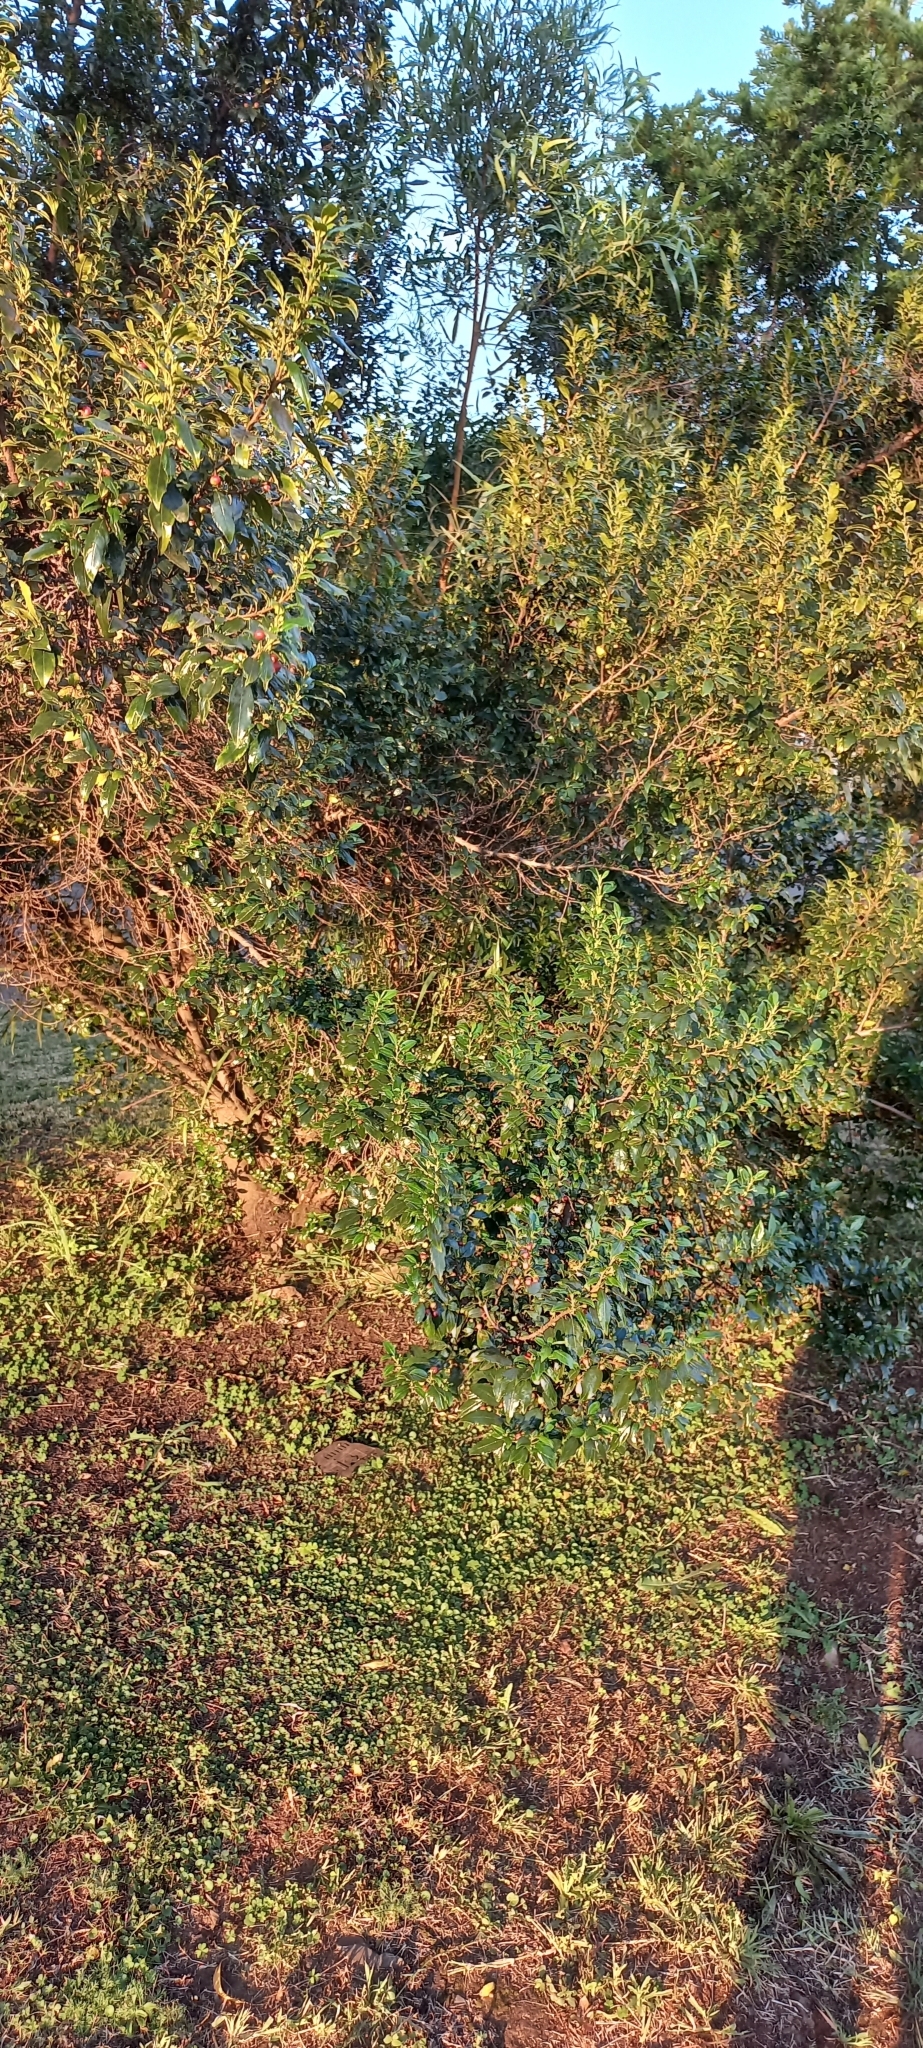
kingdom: Plantae
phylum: Tracheophyta
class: Magnoliopsida
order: Rosales
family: Rhamnaceae
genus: Rhamnus
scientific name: Rhamnus prinoides
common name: Dogwood
